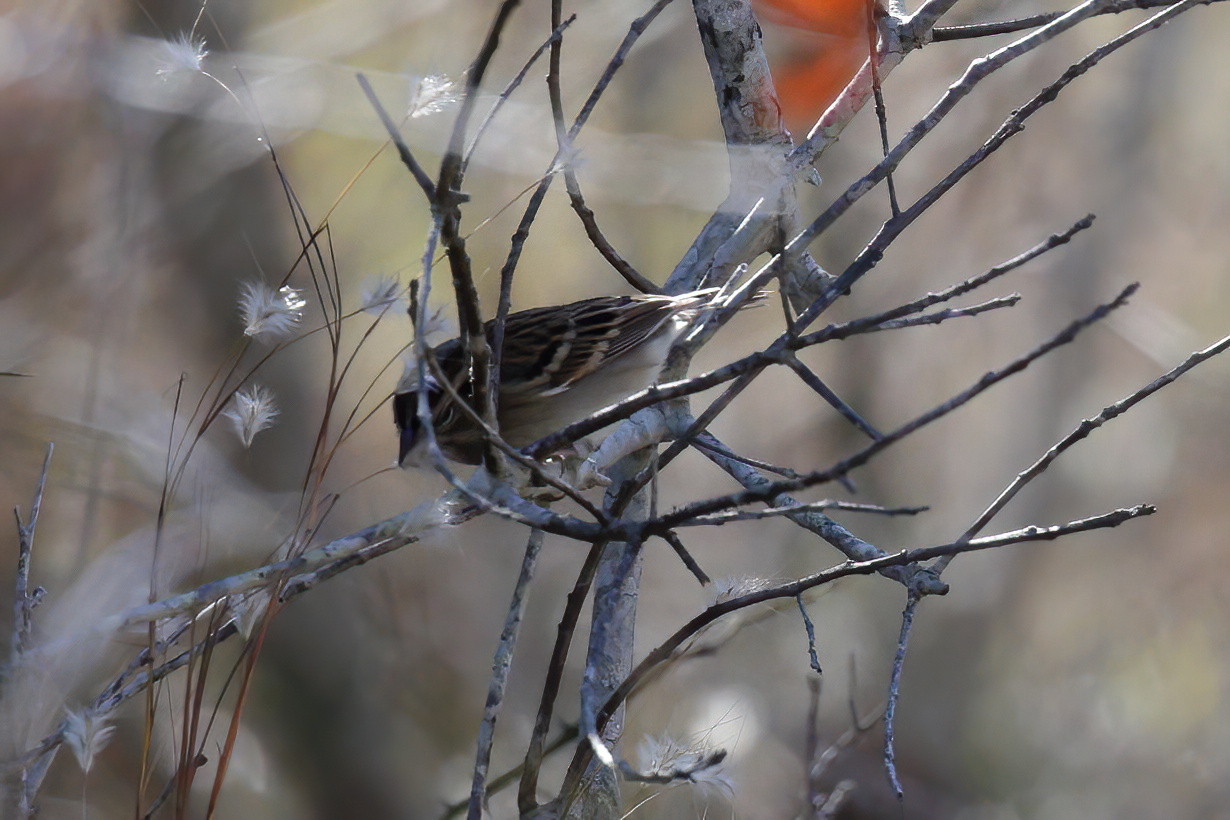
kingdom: Animalia
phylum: Chordata
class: Aves
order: Passeriformes
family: Passerellidae
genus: Spizella
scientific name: Spizella passerina
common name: Chipping sparrow
